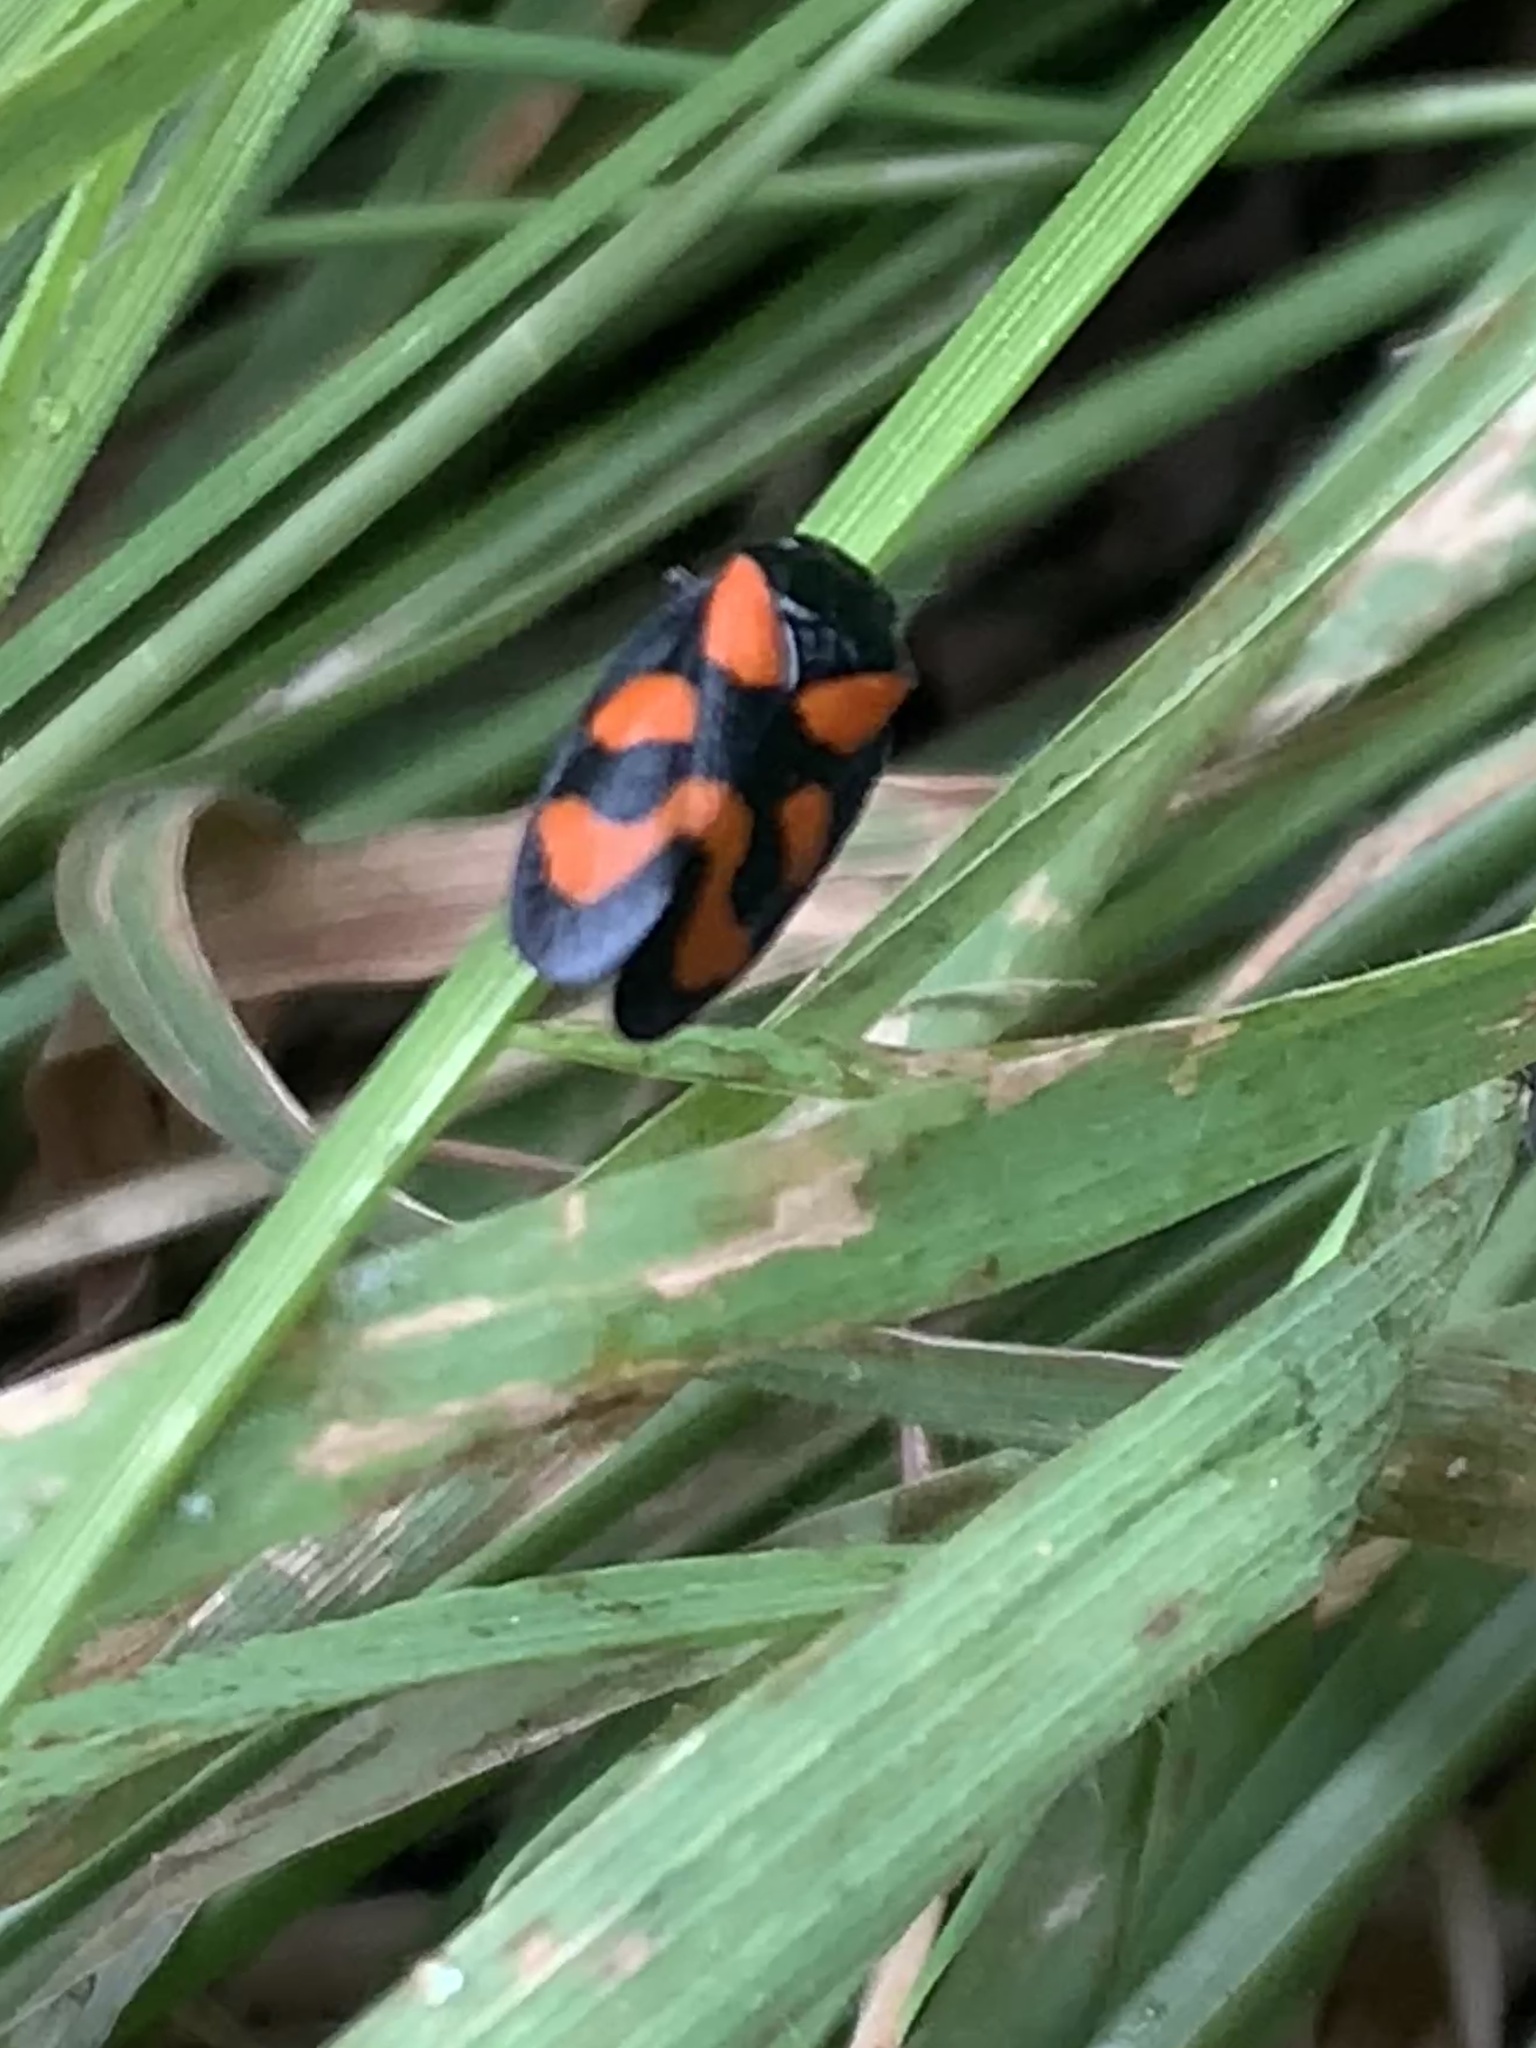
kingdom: Animalia
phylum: Arthropoda
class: Insecta
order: Hemiptera
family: Cercopidae
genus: Cercopis
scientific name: Cercopis vulnerata
